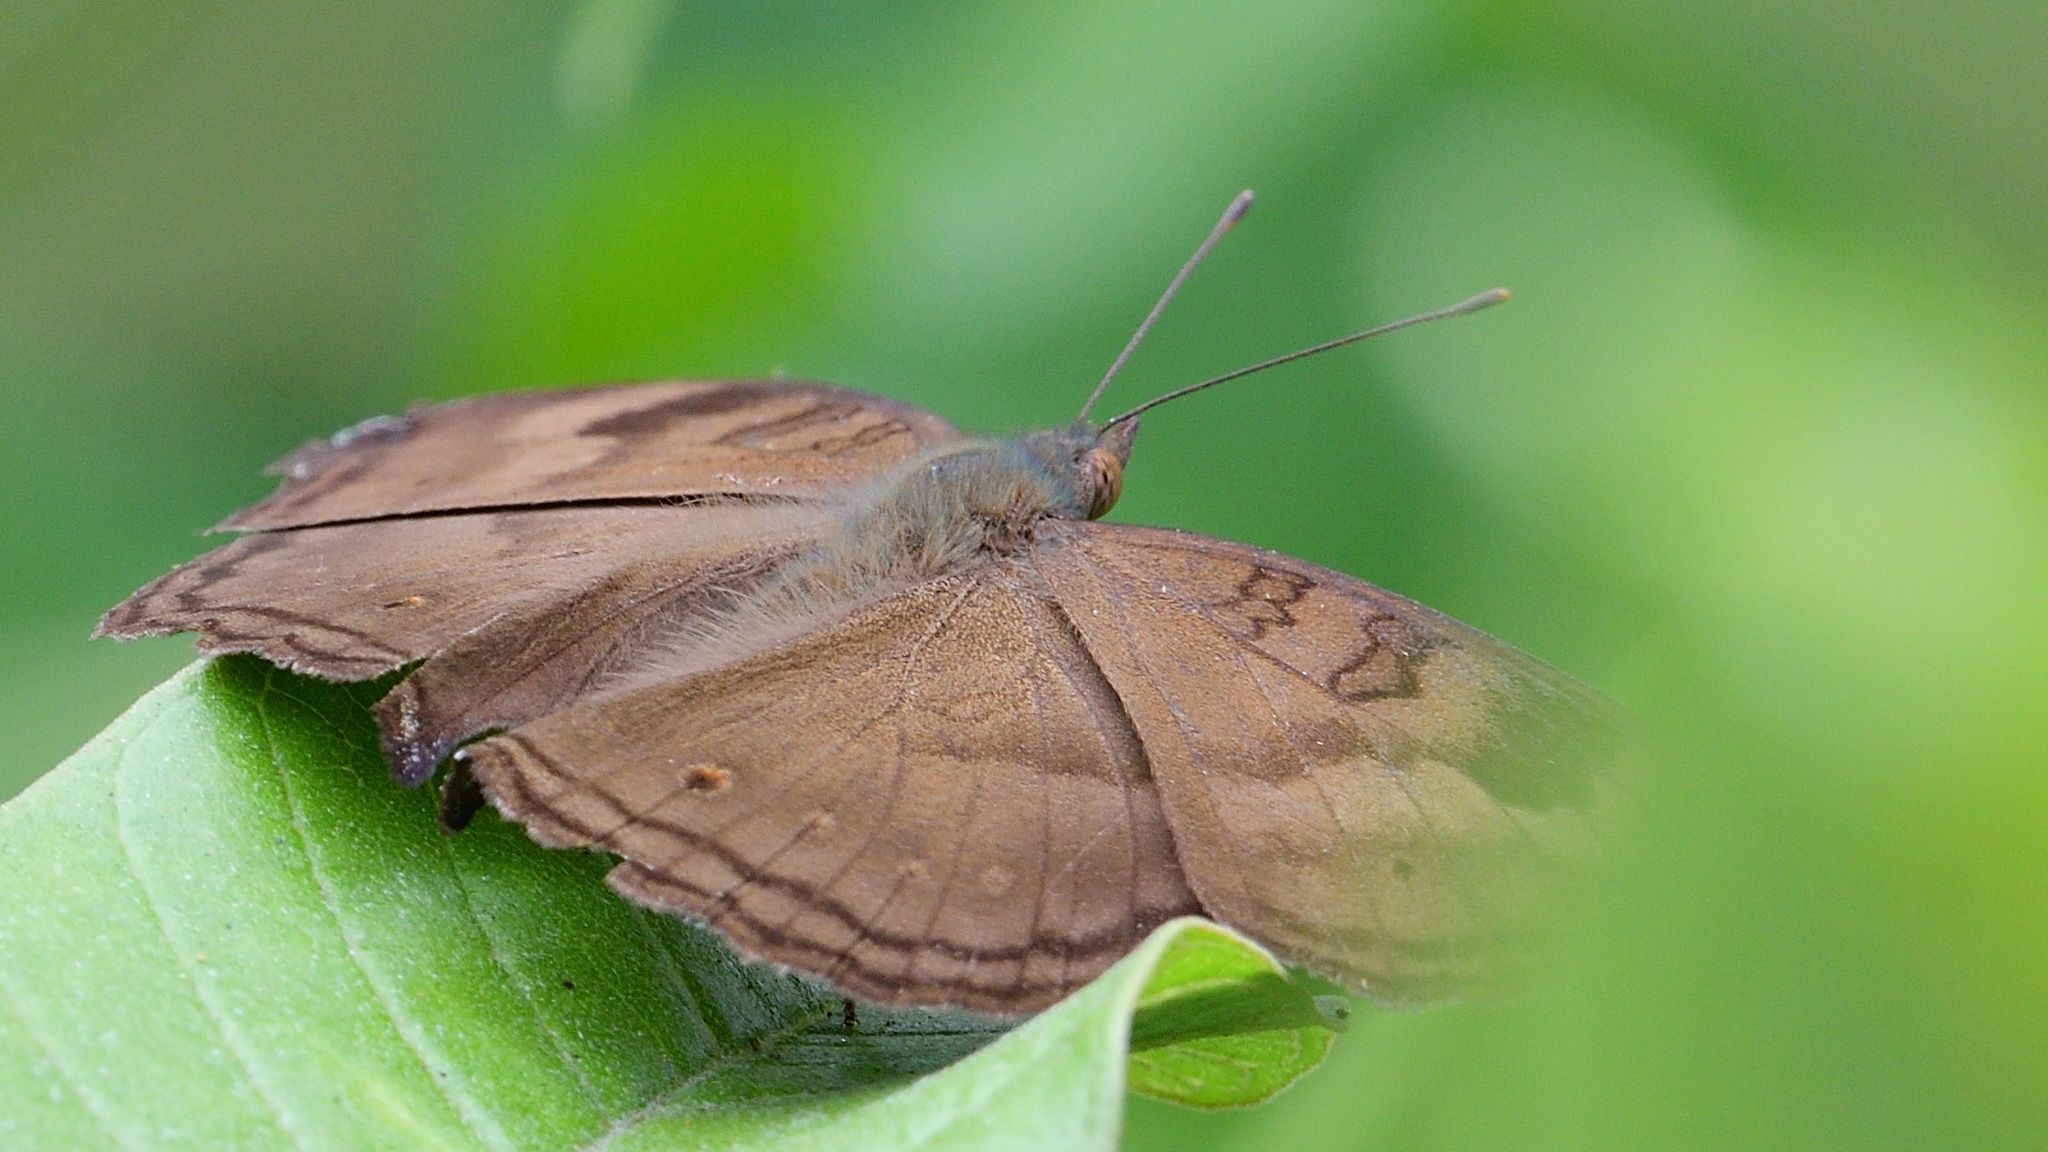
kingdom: Animalia
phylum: Arthropoda
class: Insecta
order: Lepidoptera
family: Nymphalidae
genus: Junonia
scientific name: Junonia iphita
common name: Chocolate pansy
